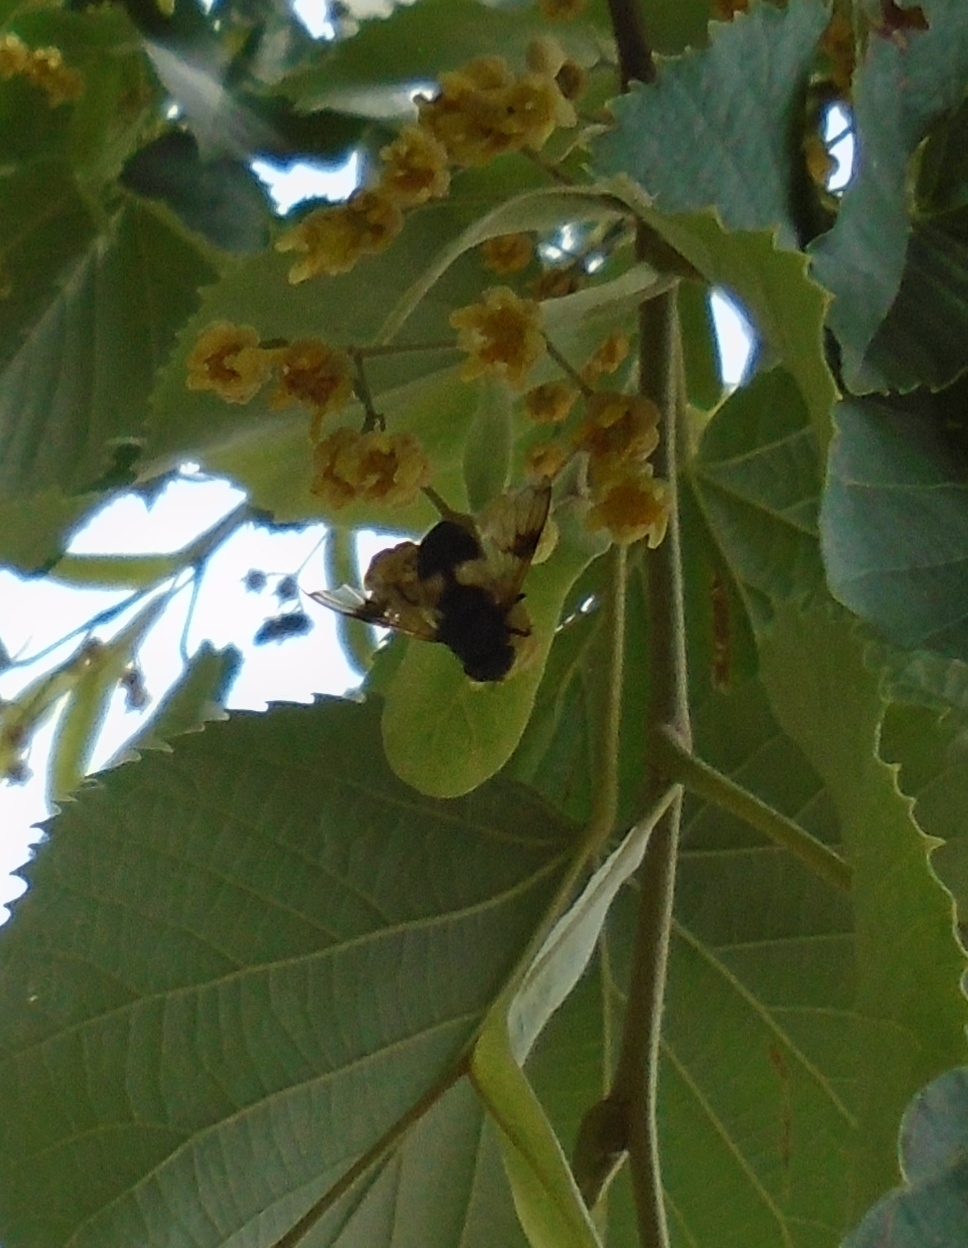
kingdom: Animalia
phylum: Arthropoda
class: Insecta
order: Diptera
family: Syrphidae
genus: Volucella
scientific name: Volucella pellucens
